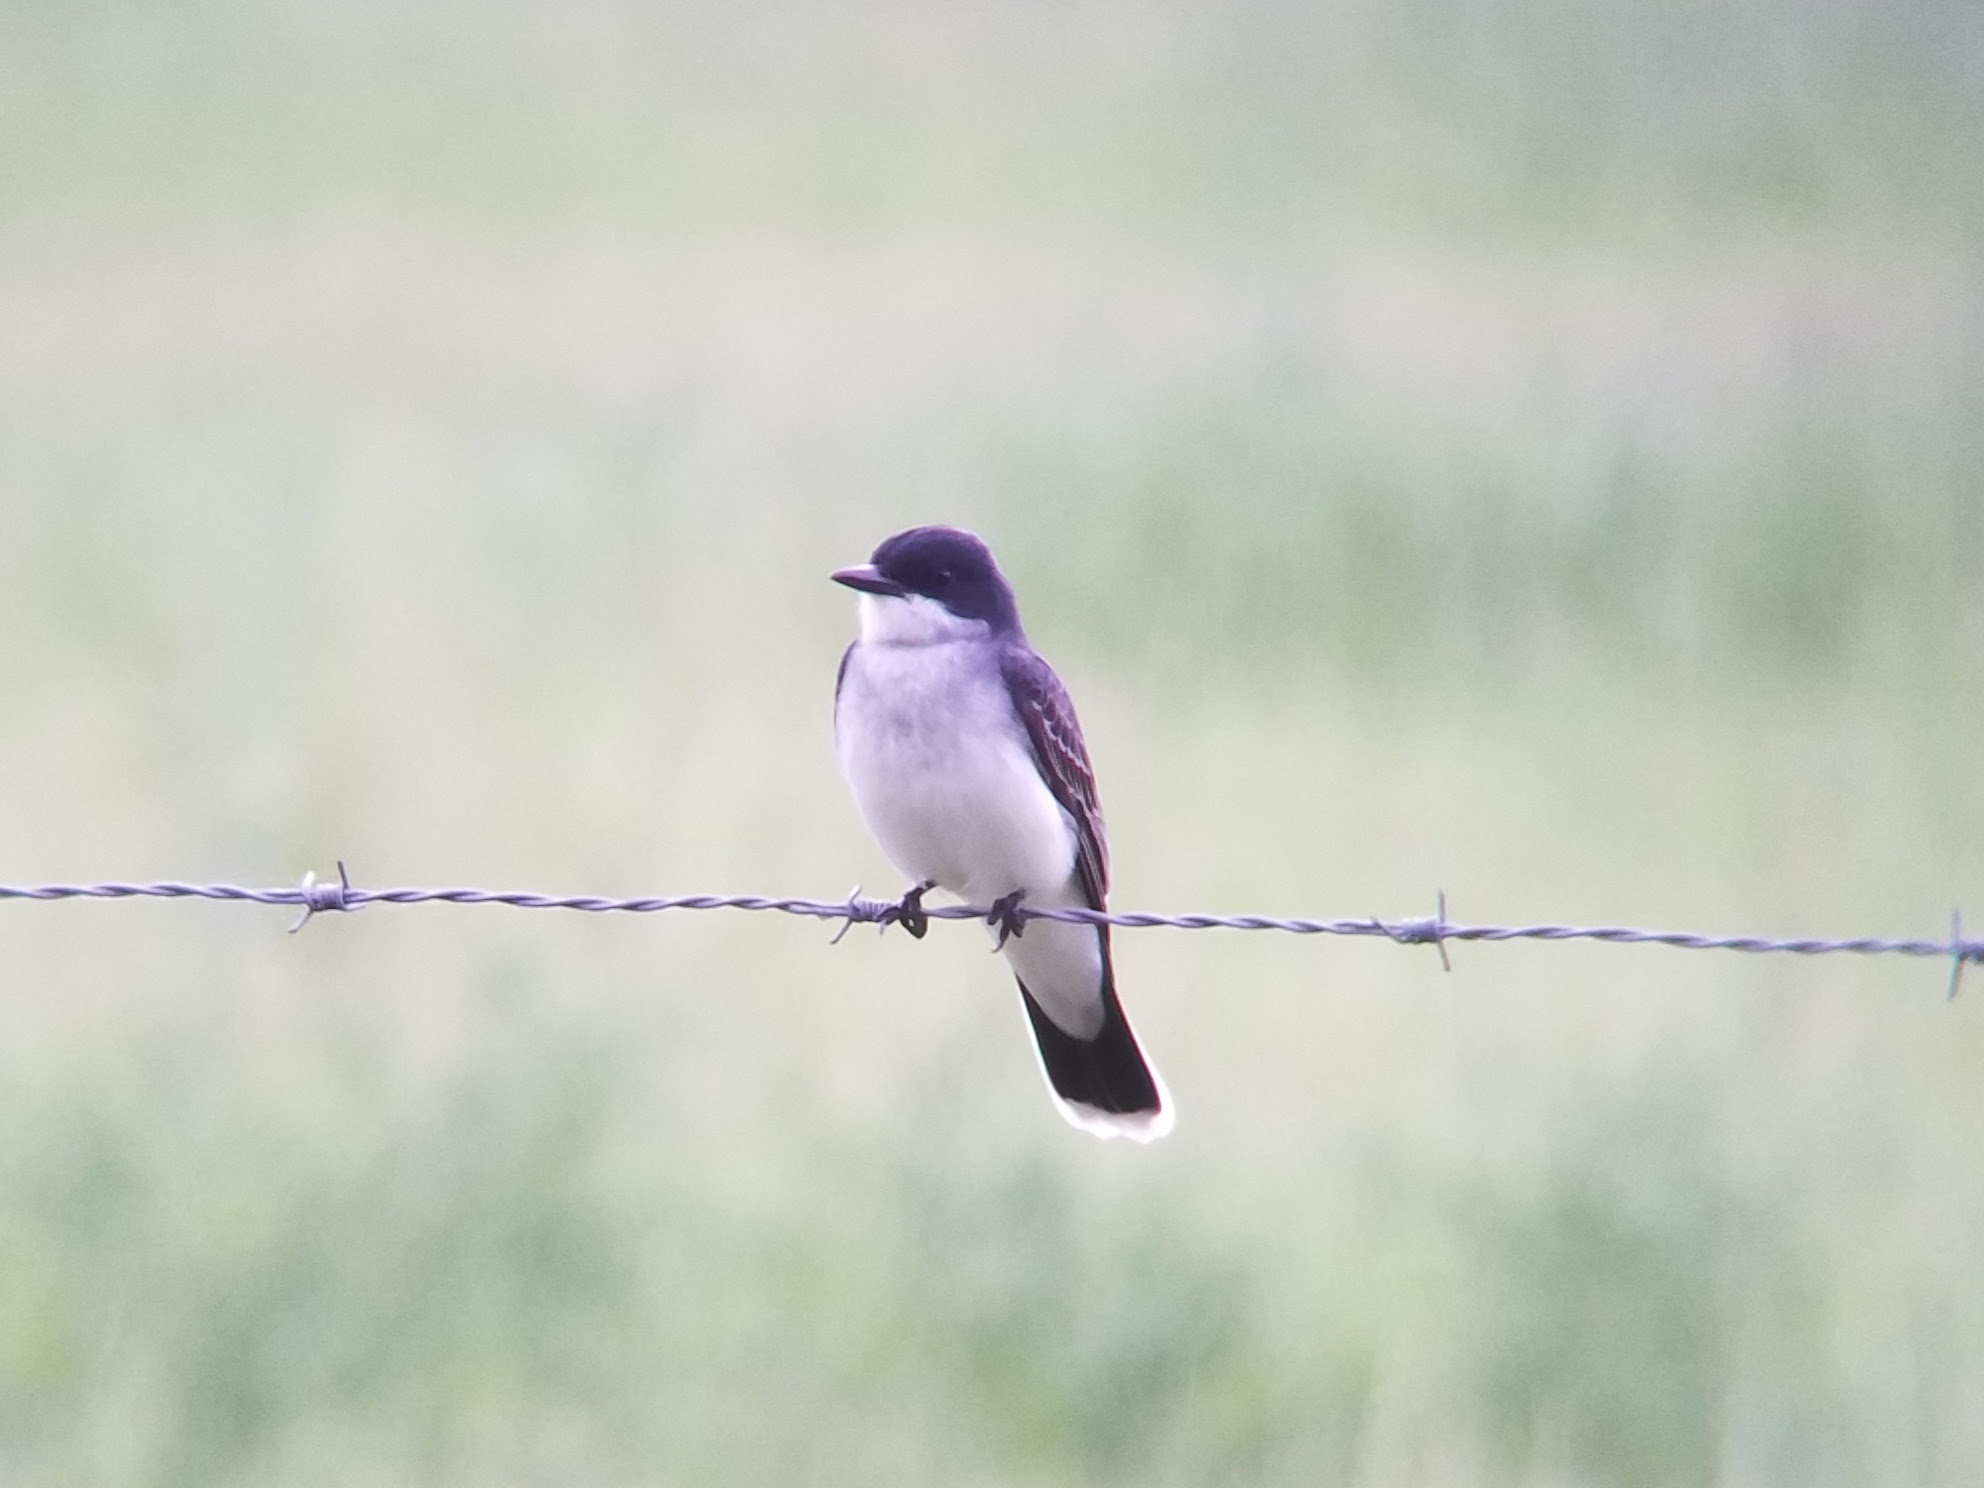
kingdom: Animalia
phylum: Chordata
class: Aves
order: Passeriformes
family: Tyrannidae
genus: Tyrannus
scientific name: Tyrannus tyrannus
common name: Eastern kingbird
